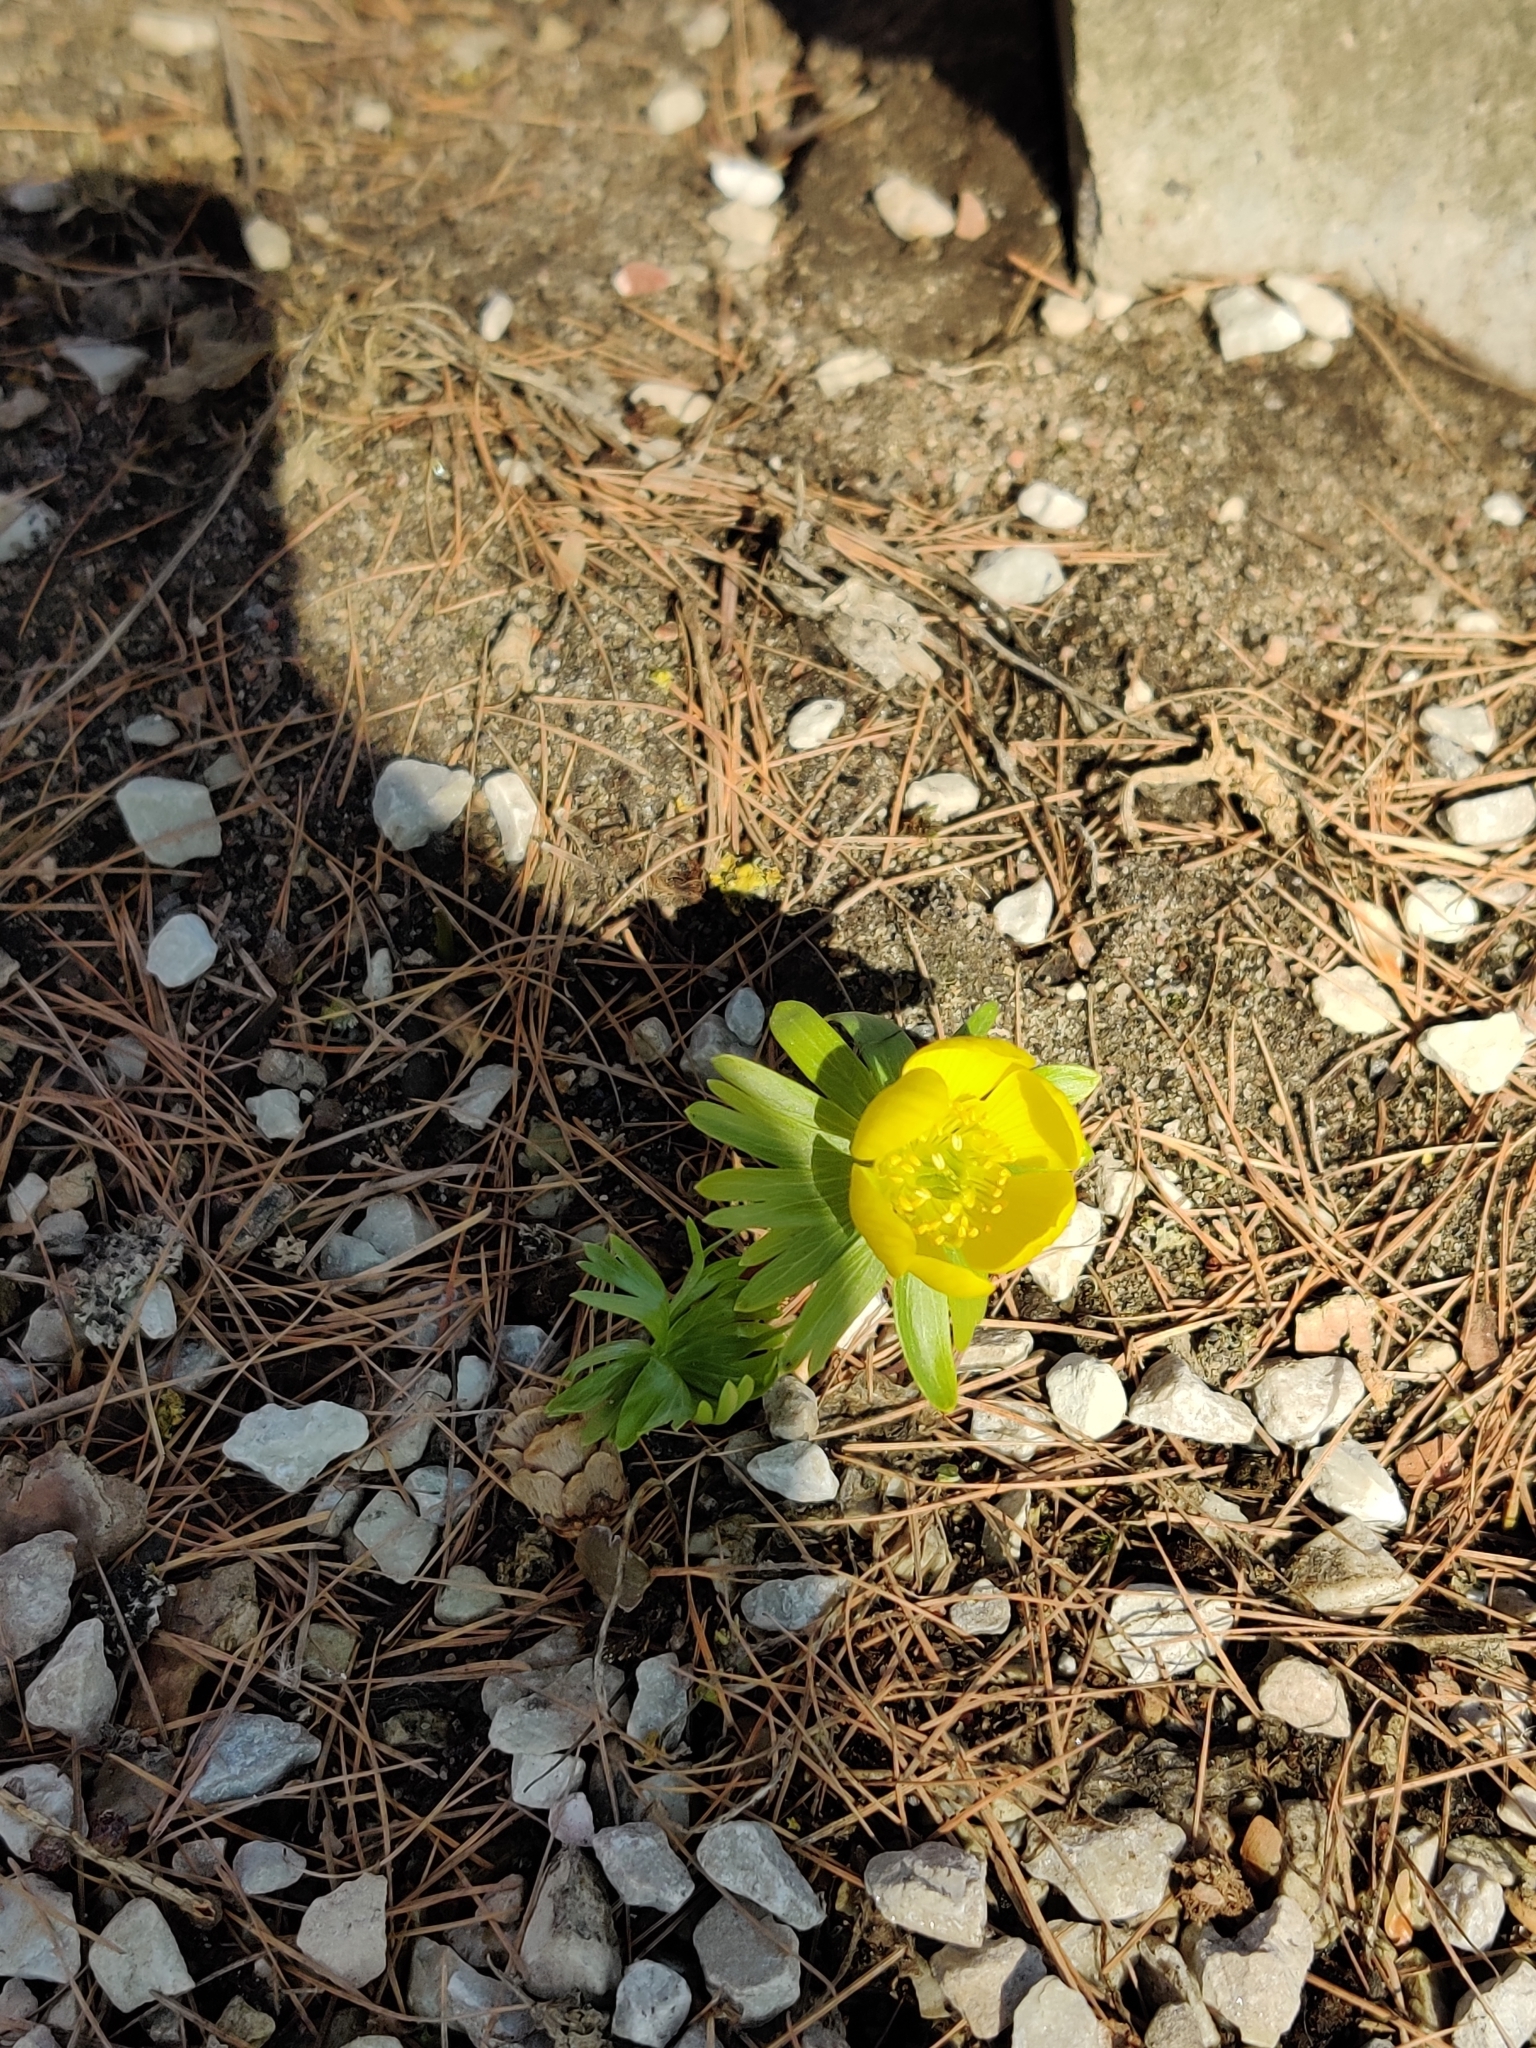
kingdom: Plantae
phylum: Tracheophyta
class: Magnoliopsida
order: Ranunculales
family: Ranunculaceae
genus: Eranthis
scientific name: Eranthis hyemalis
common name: Winter aconite
